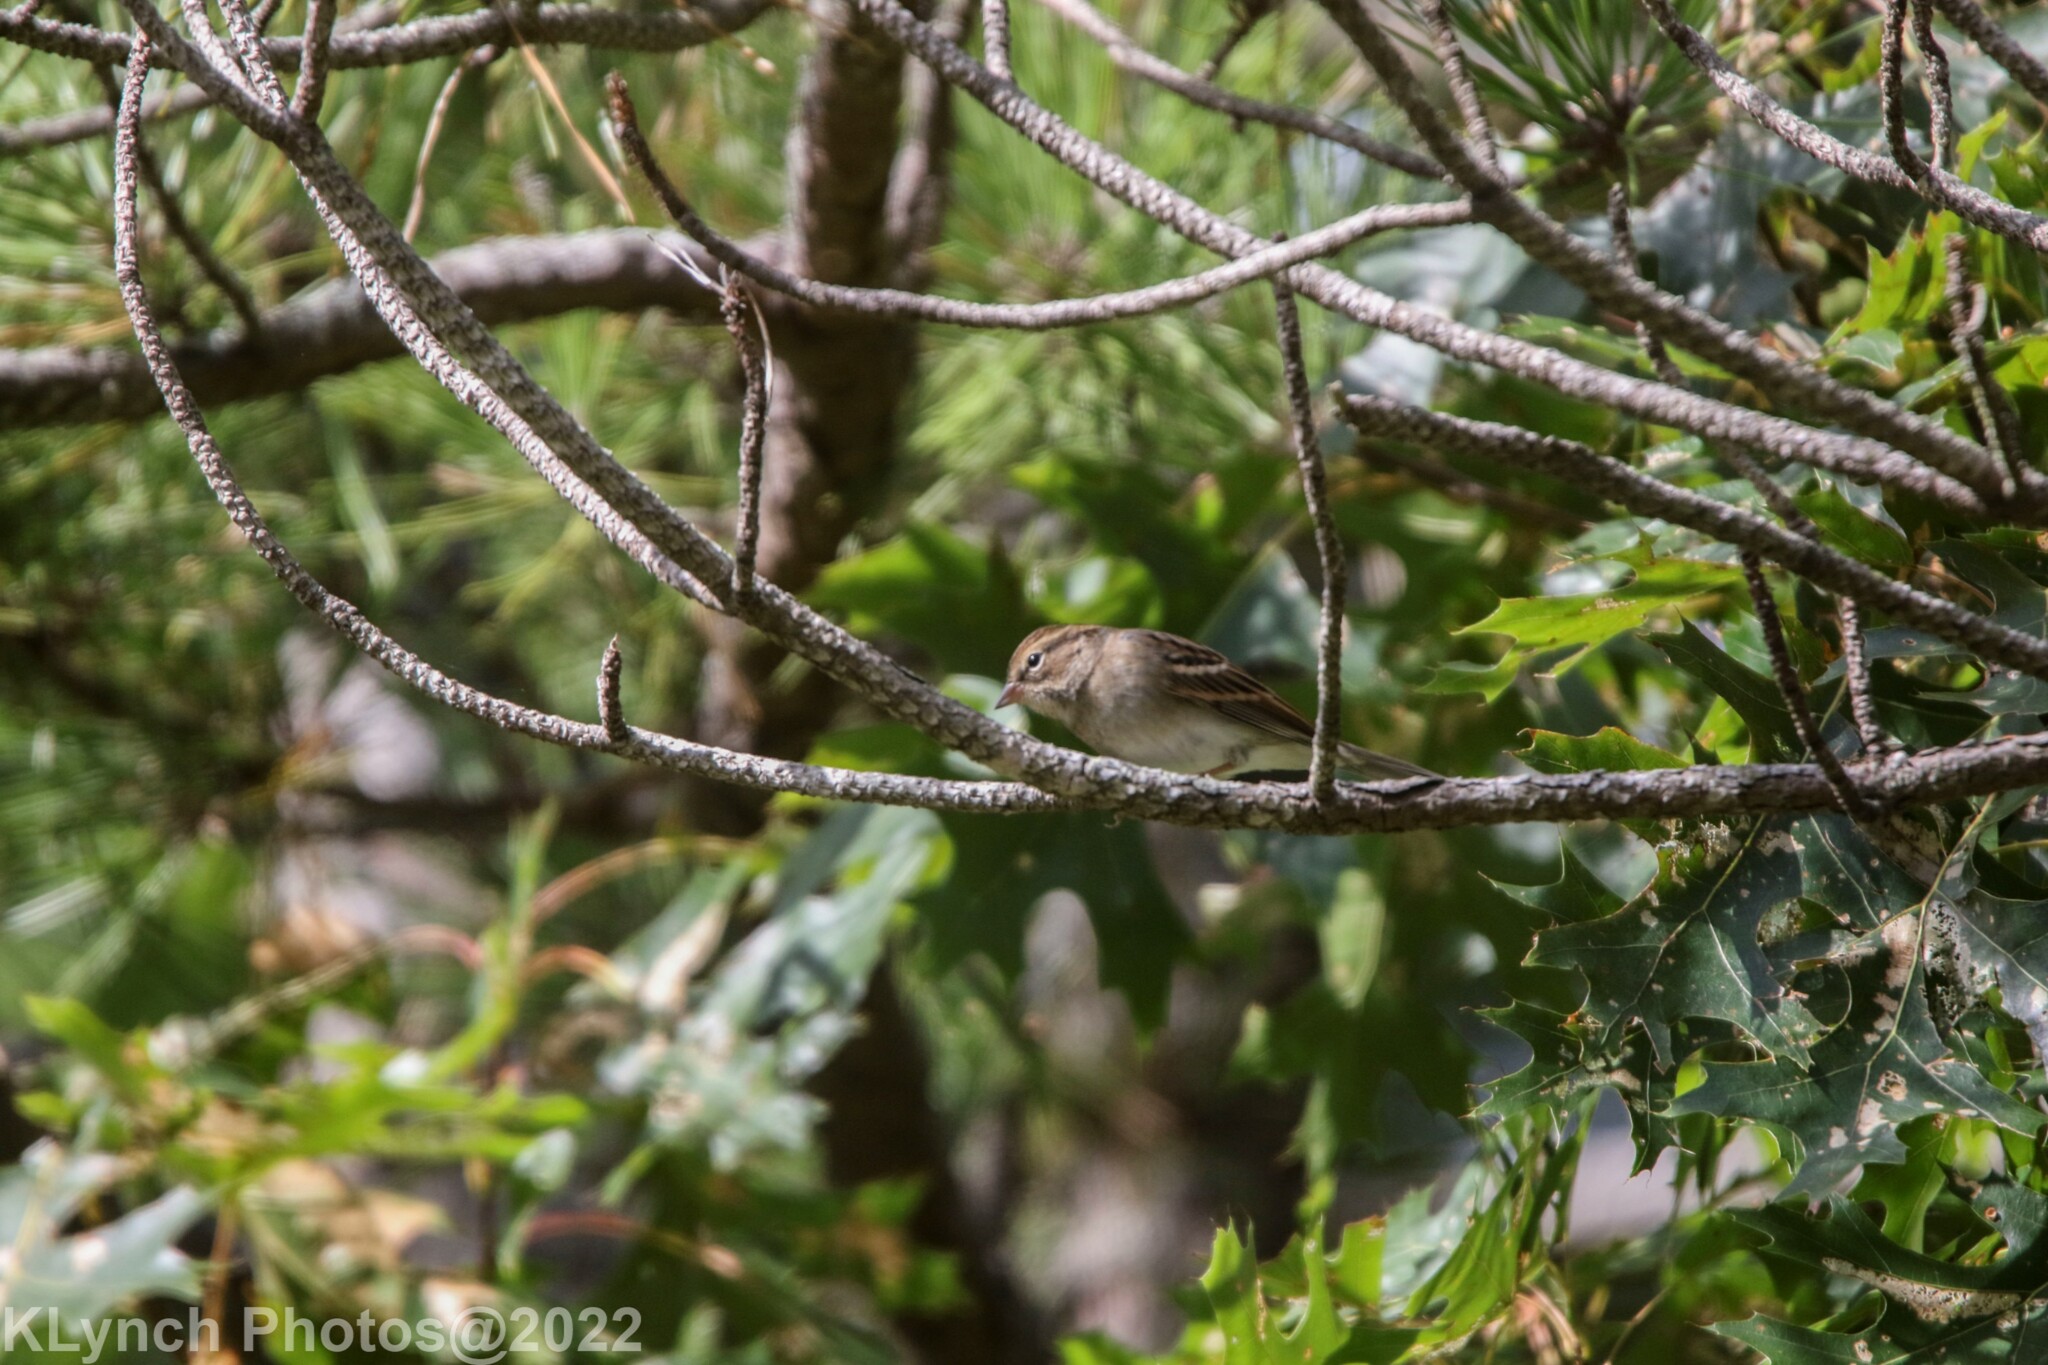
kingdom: Animalia
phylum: Chordata
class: Aves
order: Passeriformes
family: Passerellidae
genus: Spizella
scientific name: Spizella passerina
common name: Chipping sparrow
